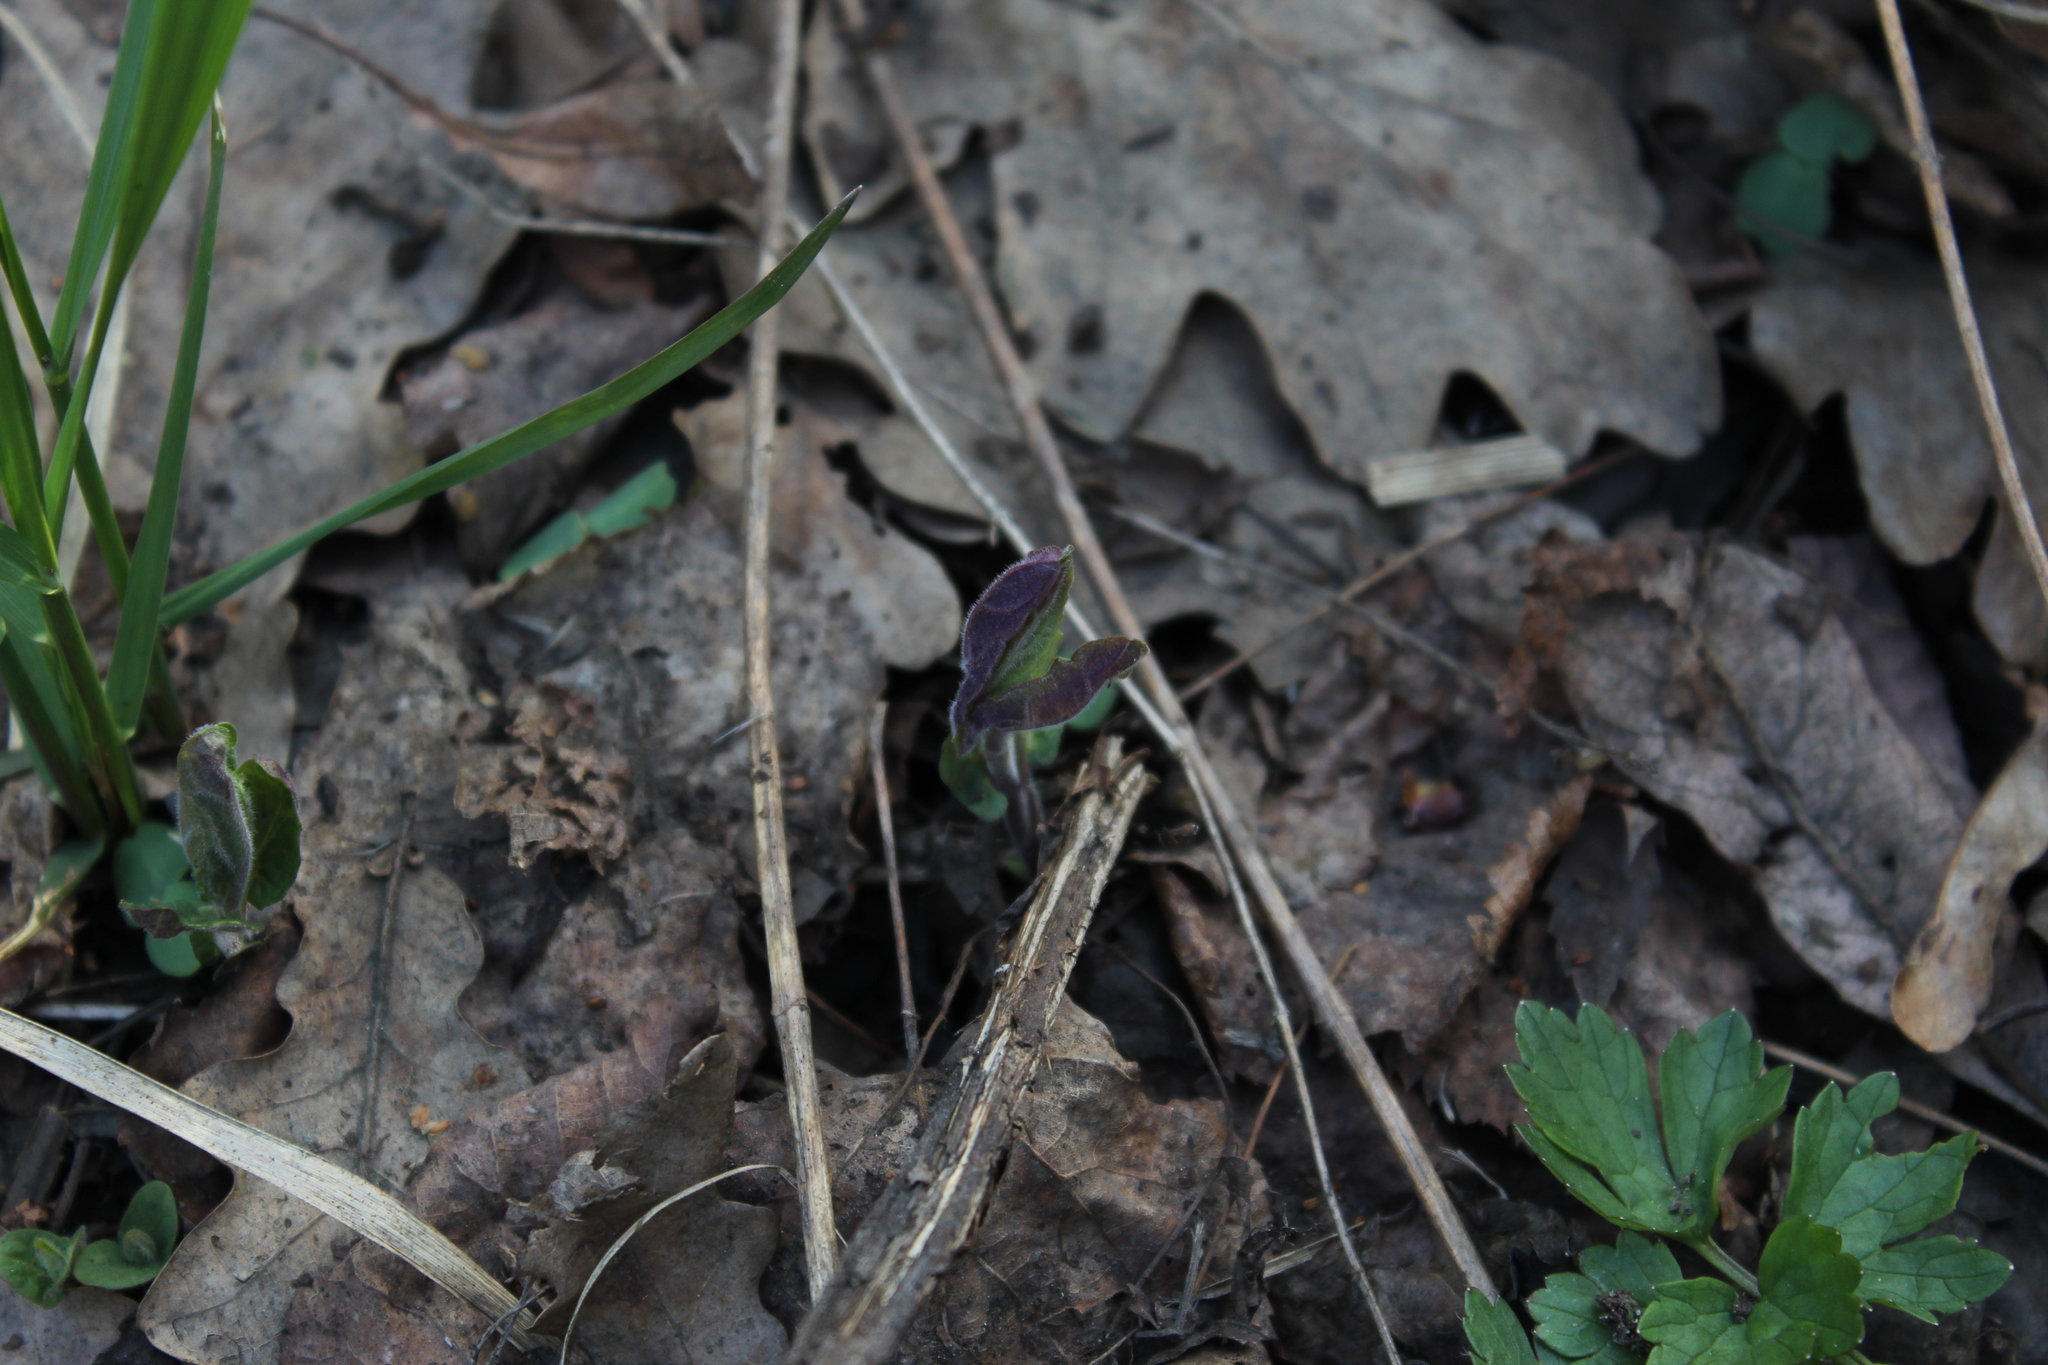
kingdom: Plantae
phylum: Tracheophyta
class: Magnoliopsida
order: Lamiales
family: Lamiaceae
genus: Scutellaria
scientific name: Scutellaria galericulata
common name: Skullcap
